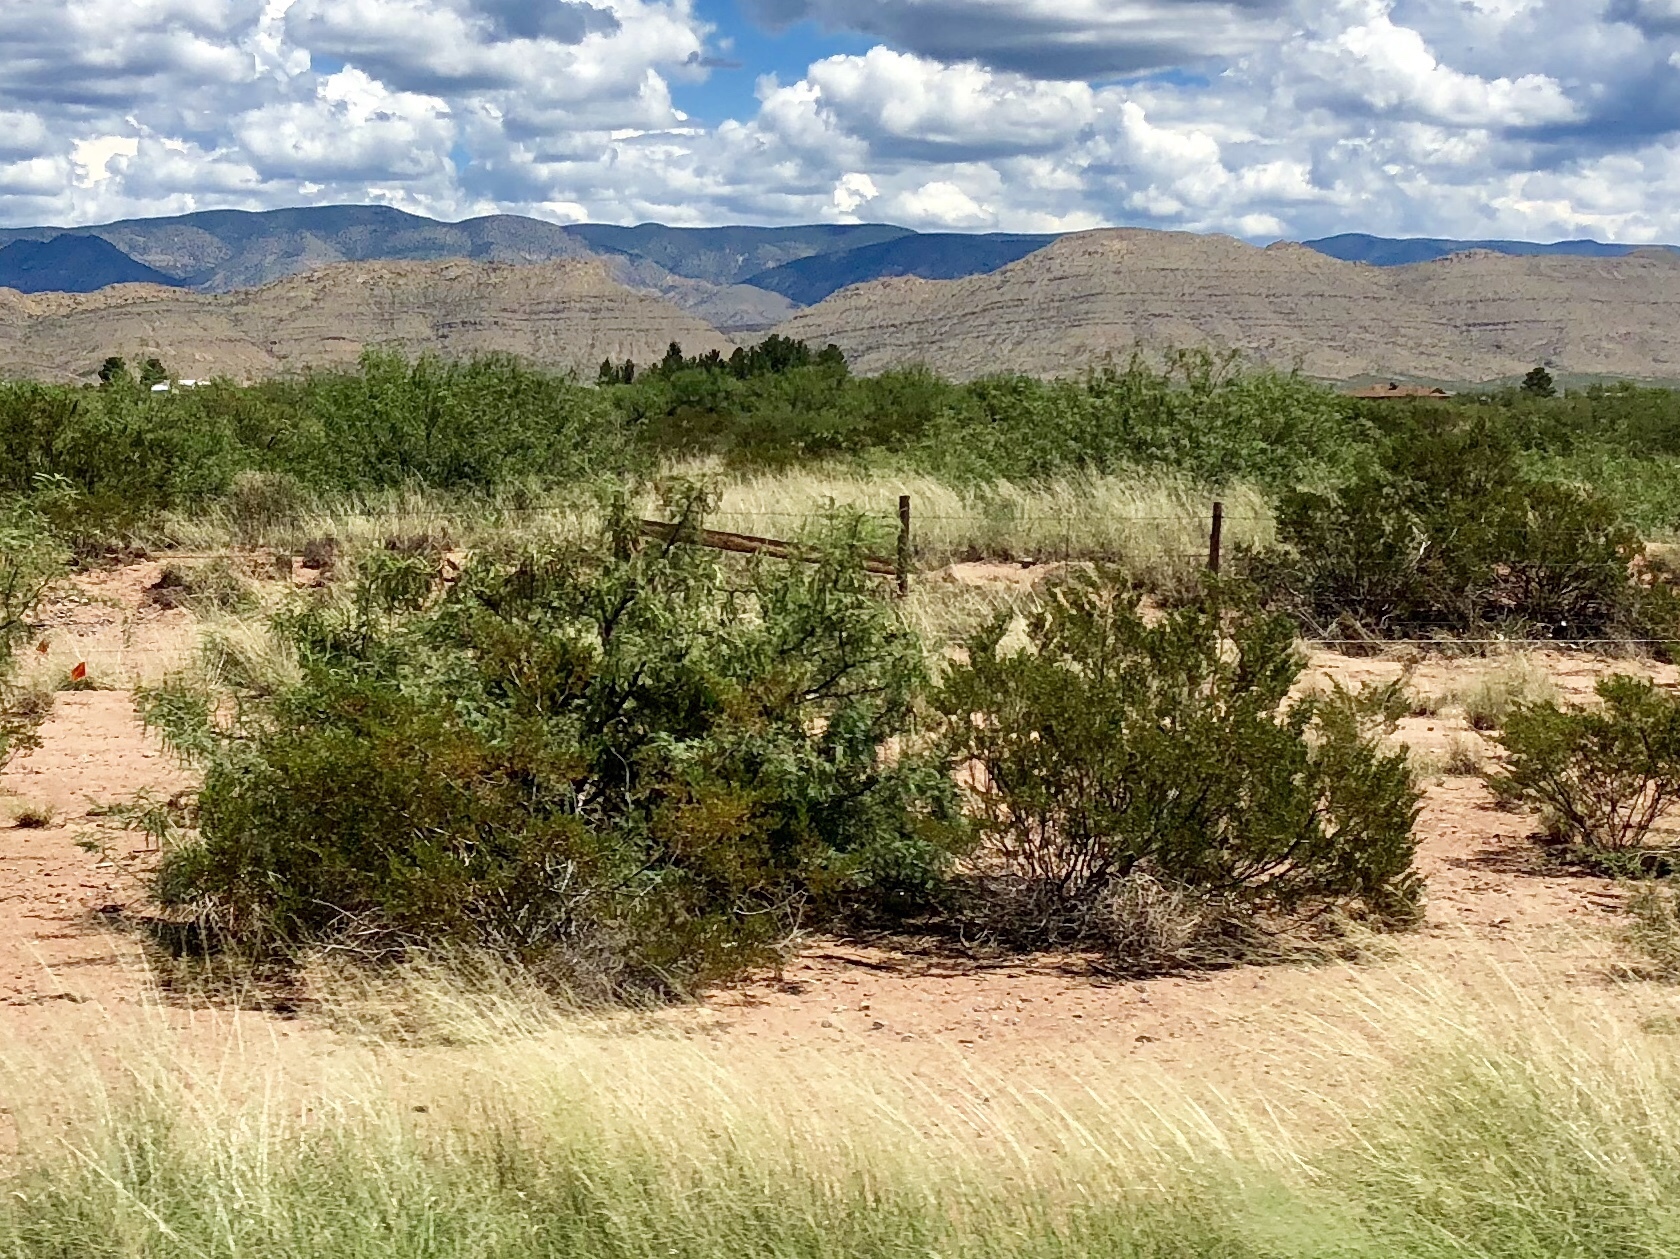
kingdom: Plantae
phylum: Tracheophyta
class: Magnoliopsida
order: Zygophyllales
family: Zygophyllaceae
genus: Larrea
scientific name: Larrea tridentata
